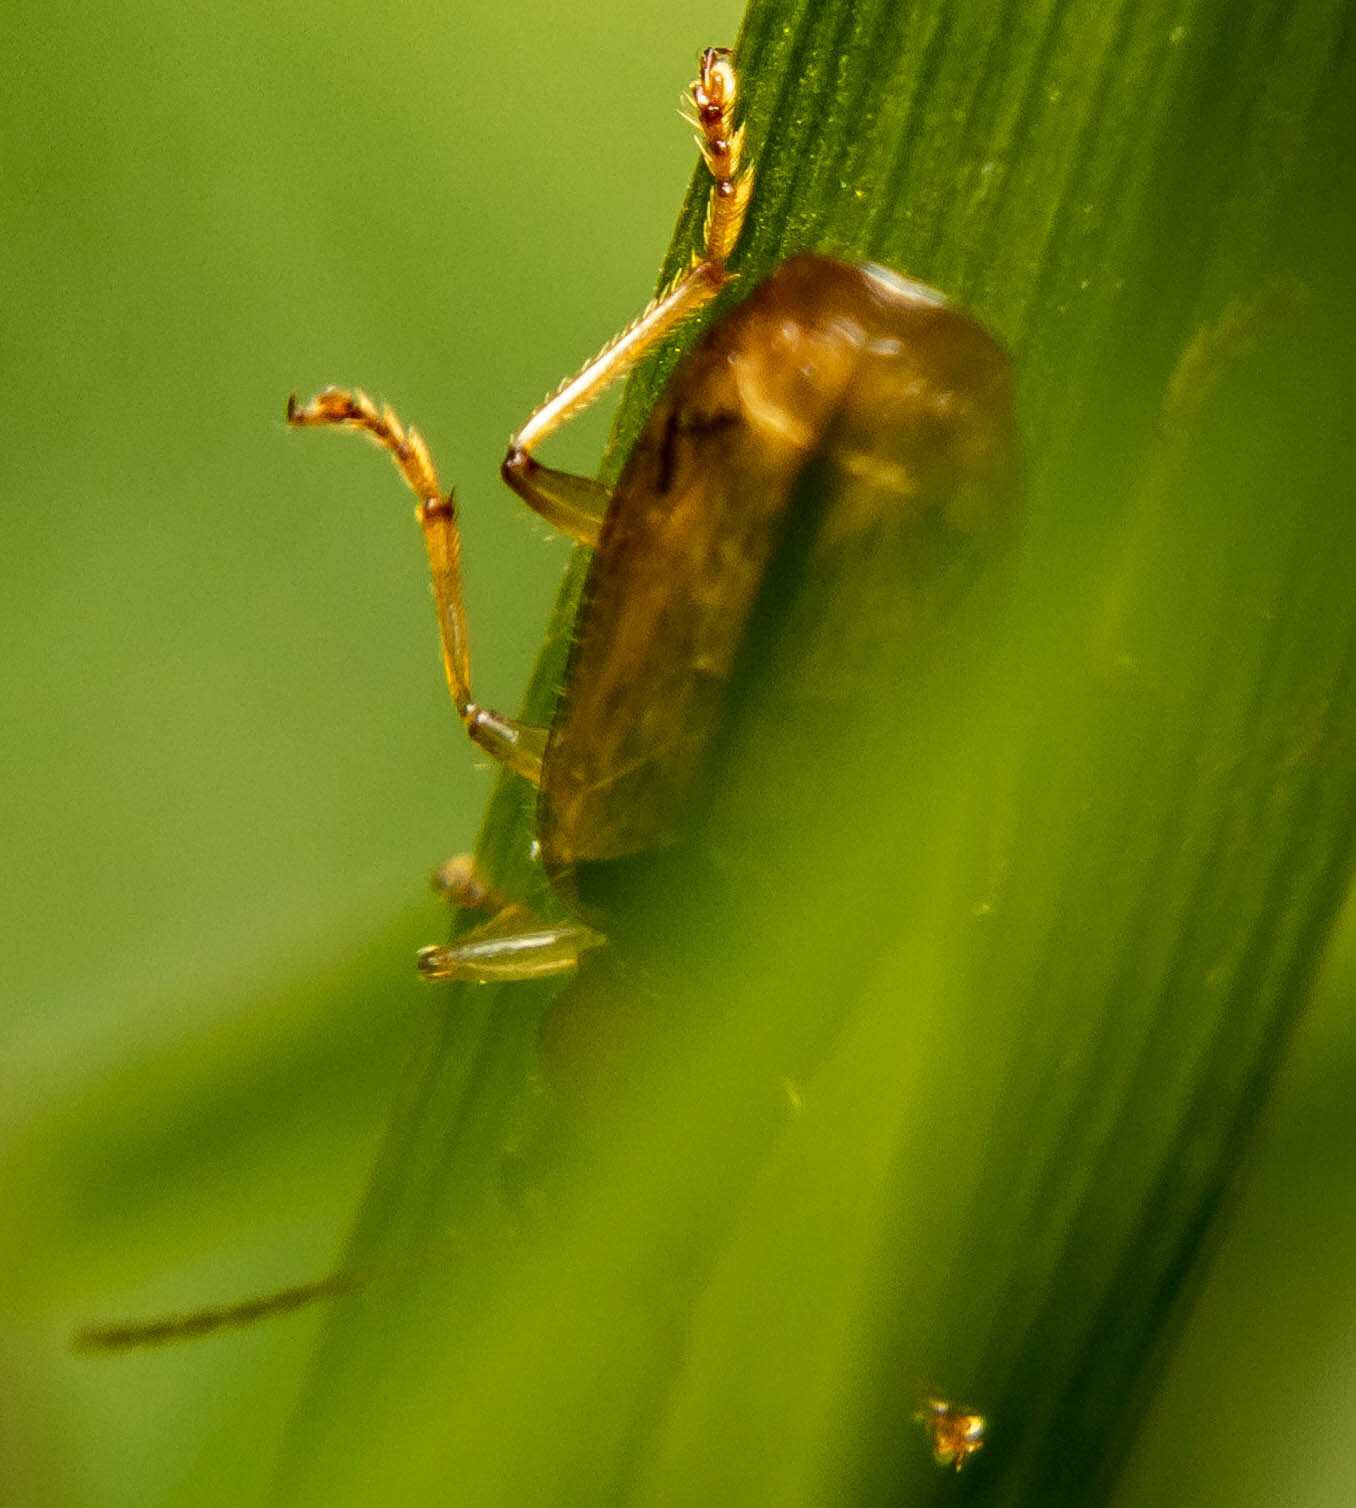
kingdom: Animalia
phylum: Arthropoda
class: Insecta
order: Coleoptera
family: Carabidae
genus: Demetrias
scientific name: Demetrias atricapillus
